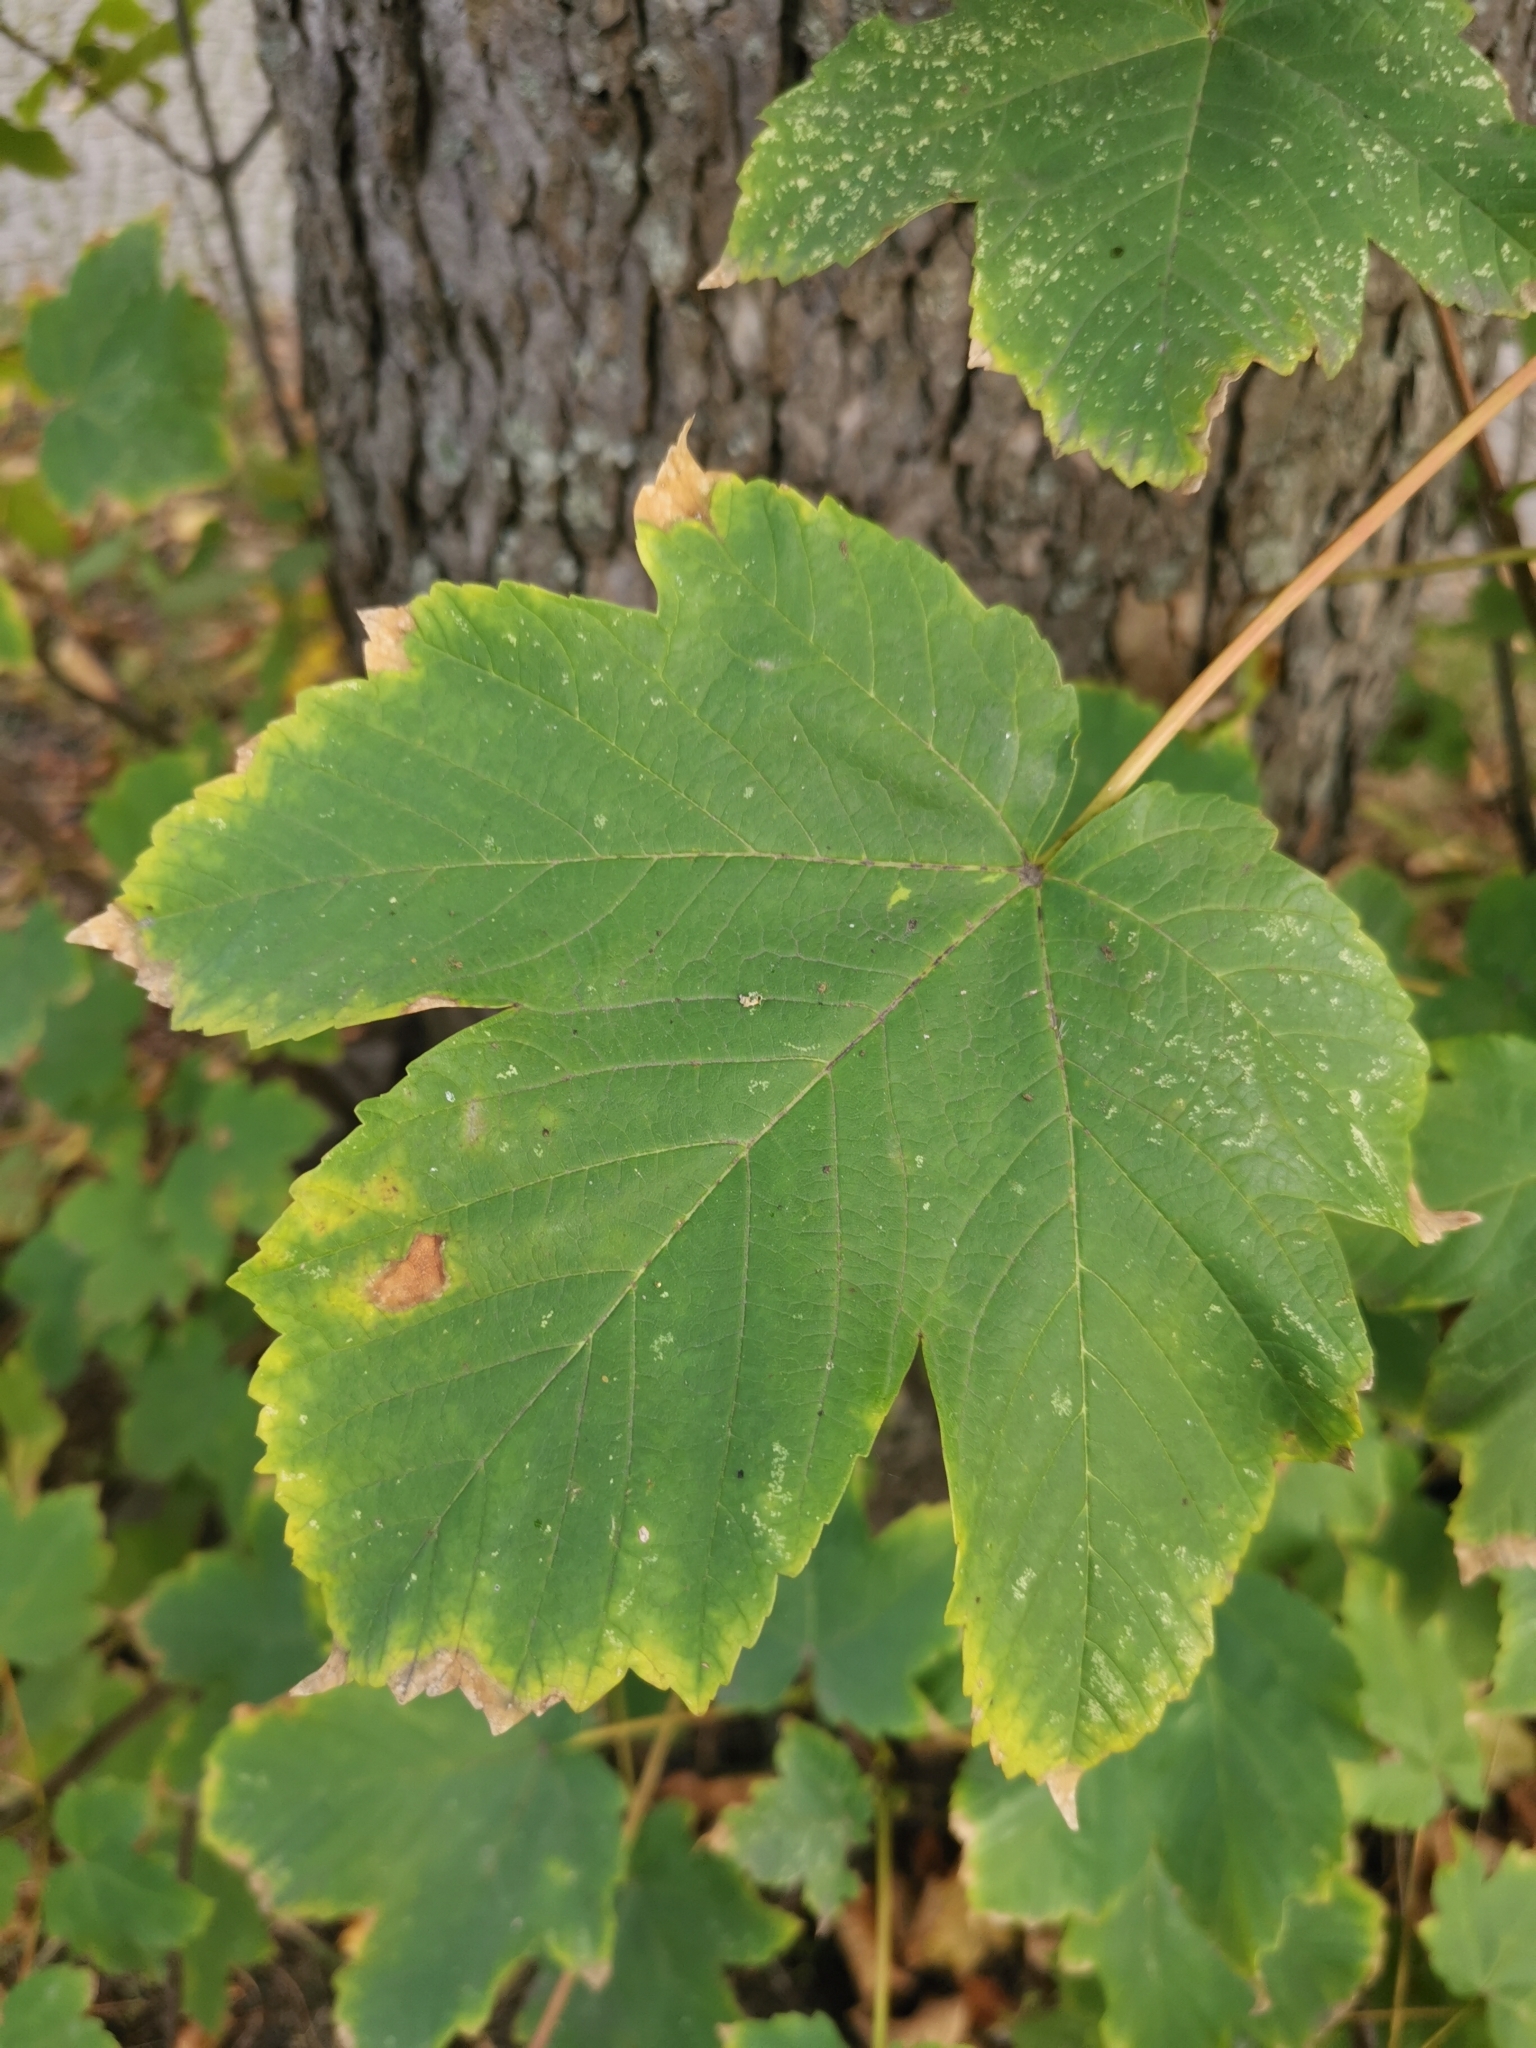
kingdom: Plantae
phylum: Tracheophyta
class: Magnoliopsida
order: Sapindales
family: Sapindaceae
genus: Acer
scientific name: Acer pseudoplatanus
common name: Sycamore
